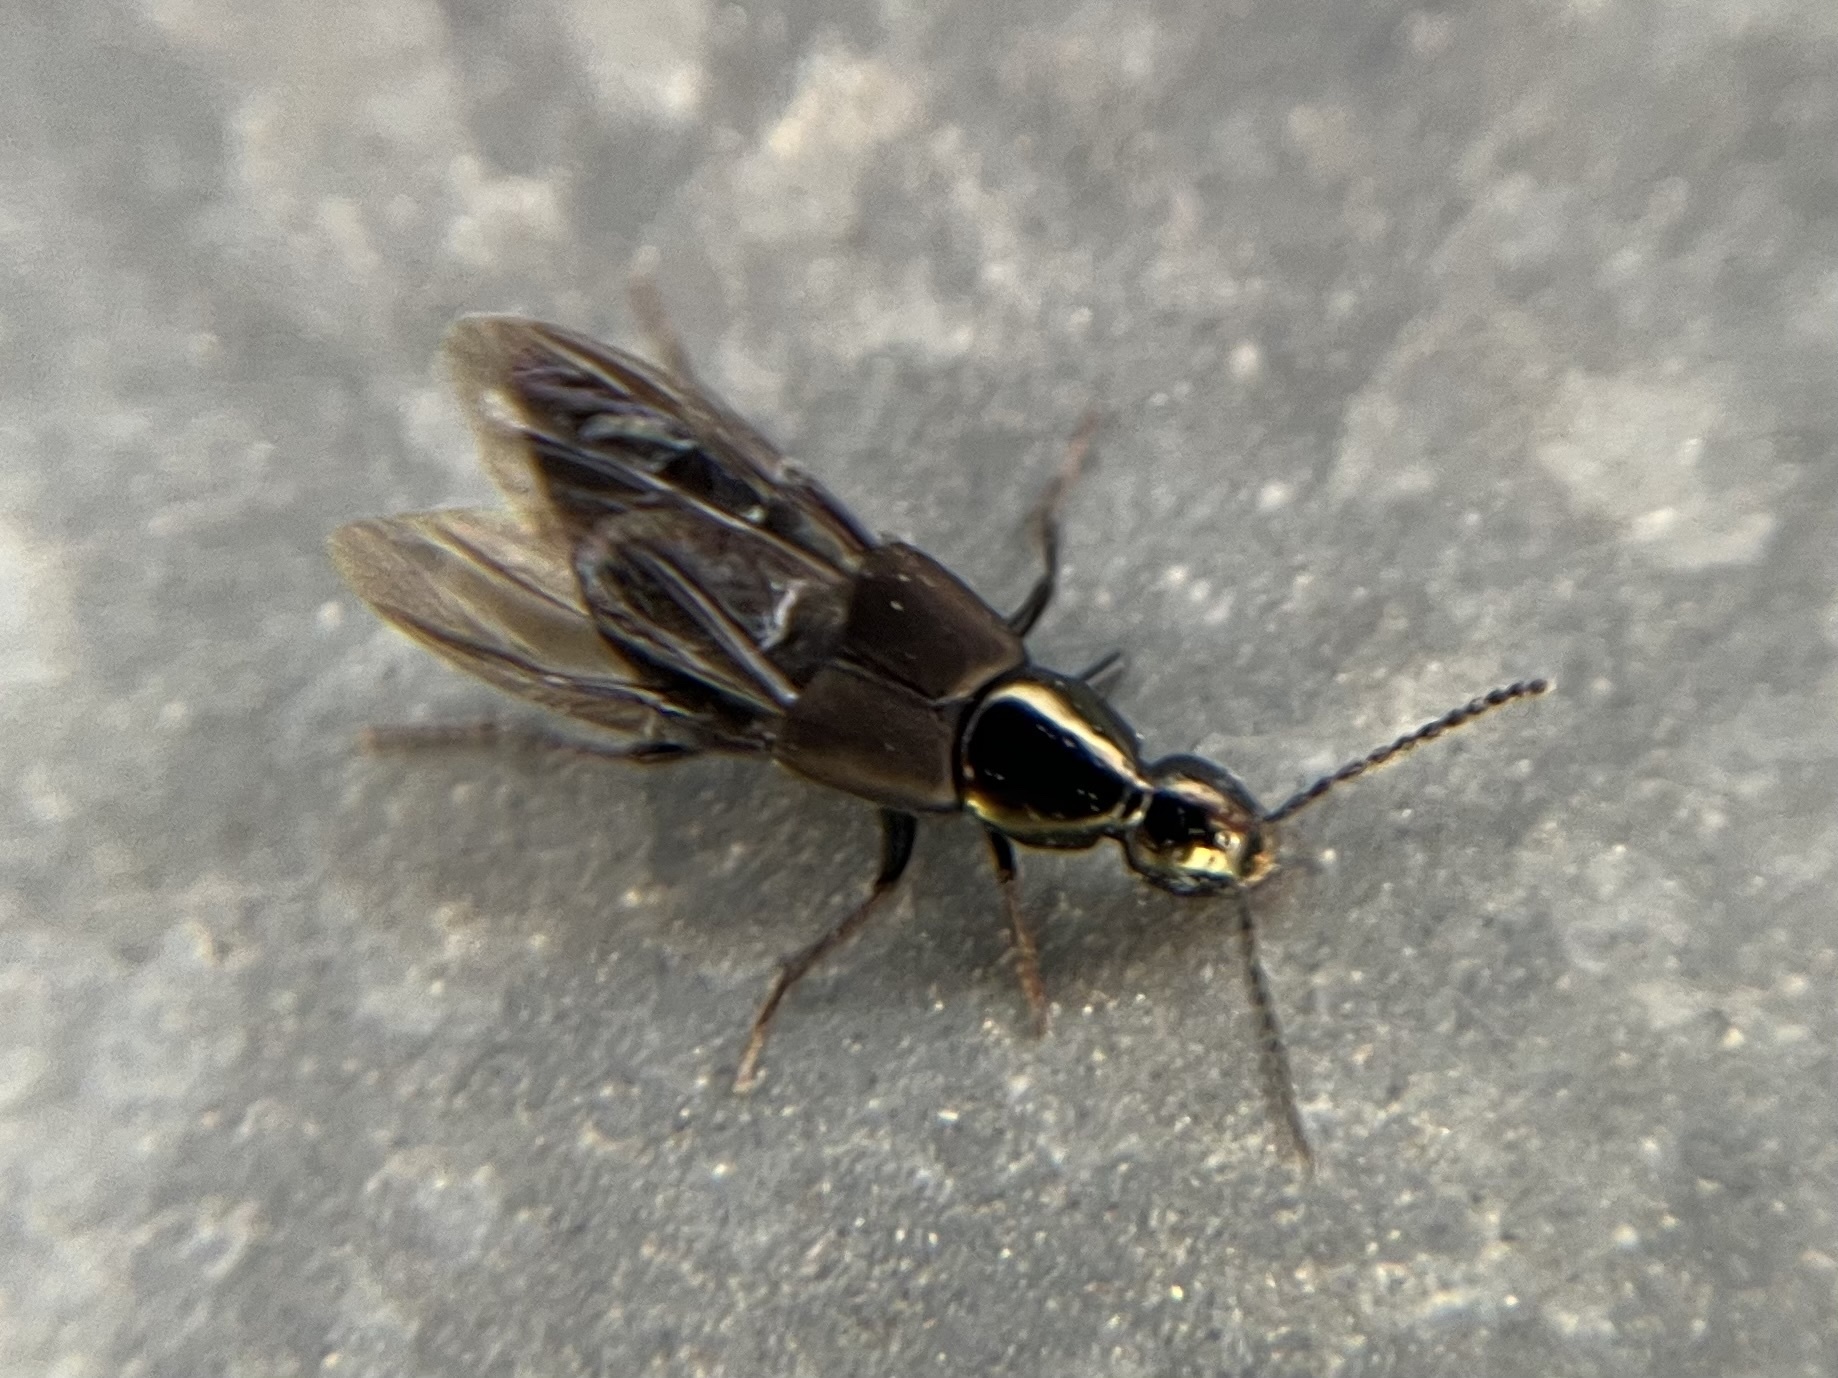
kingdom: Animalia
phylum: Arthropoda
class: Insecta
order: Coleoptera
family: Staphylinidae
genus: Philonthus
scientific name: Philonthus decorus
